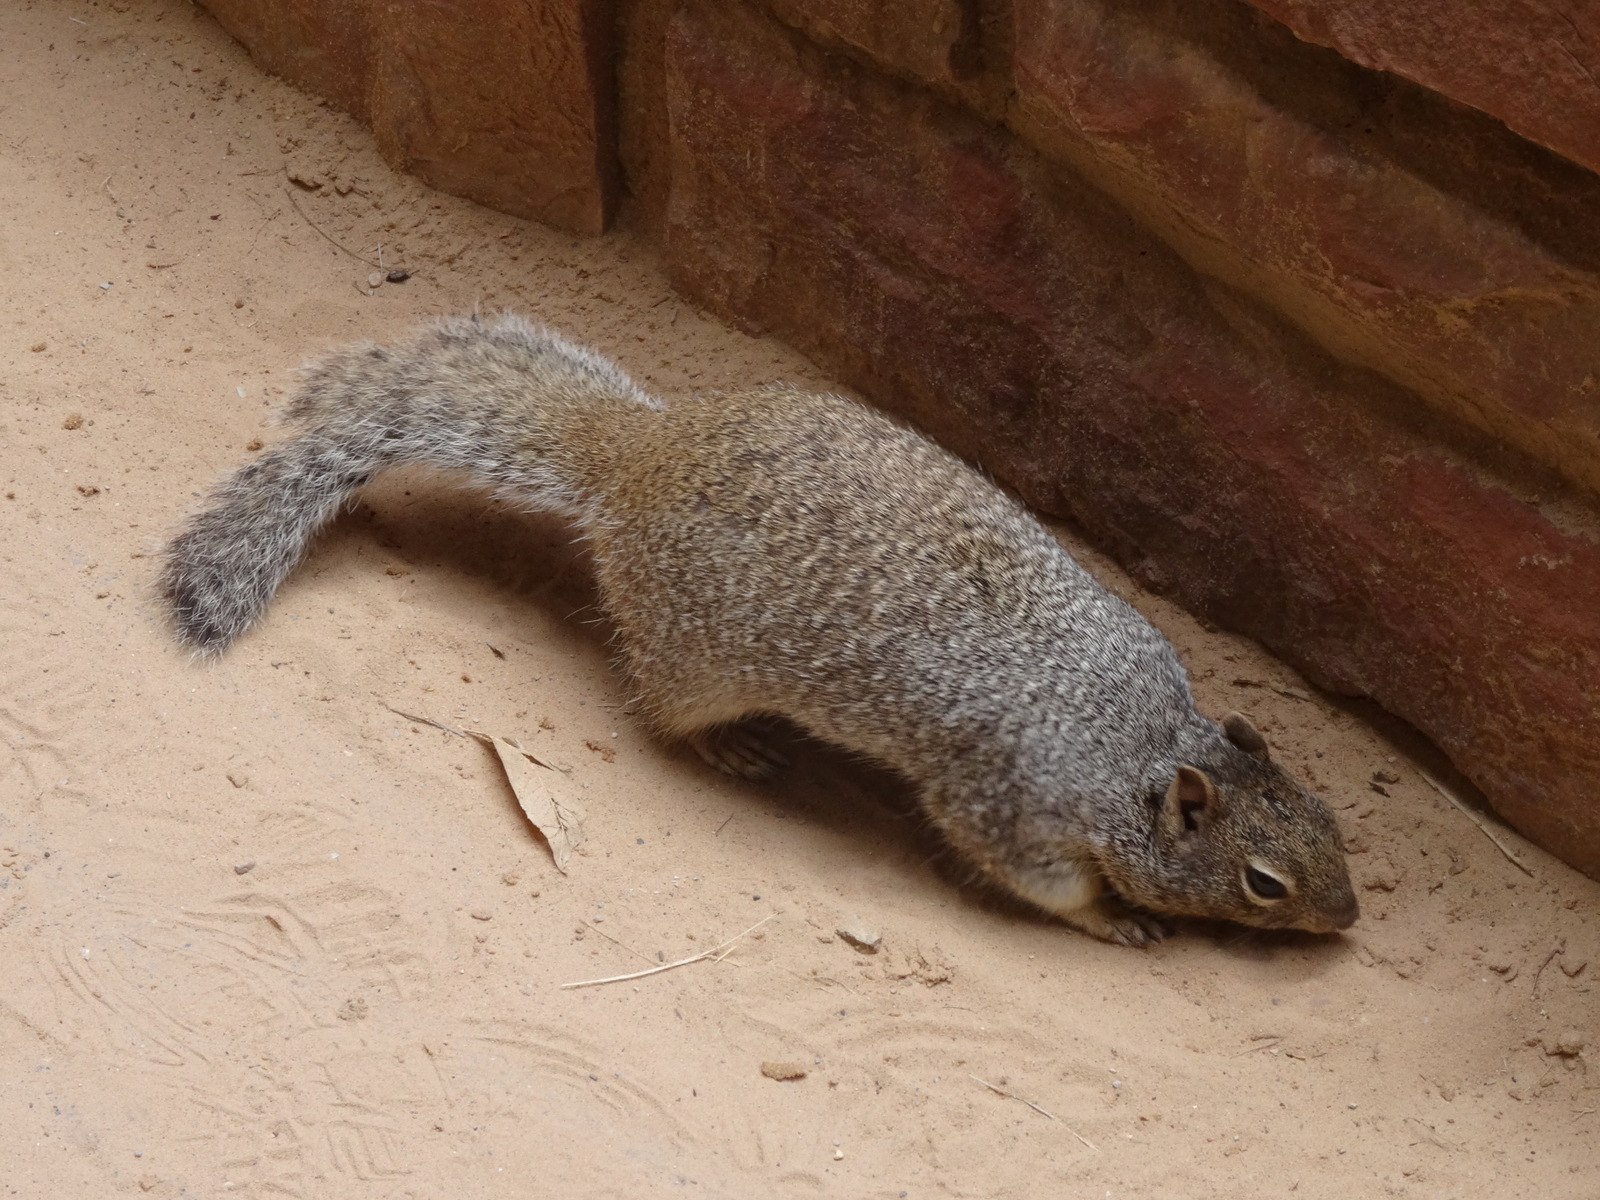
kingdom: Animalia
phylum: Chordata
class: Mammalia
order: Rodentia
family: Sciuridae
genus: Otospermophilus
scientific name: Otospermophilus variegatus
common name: Rock squirrel
